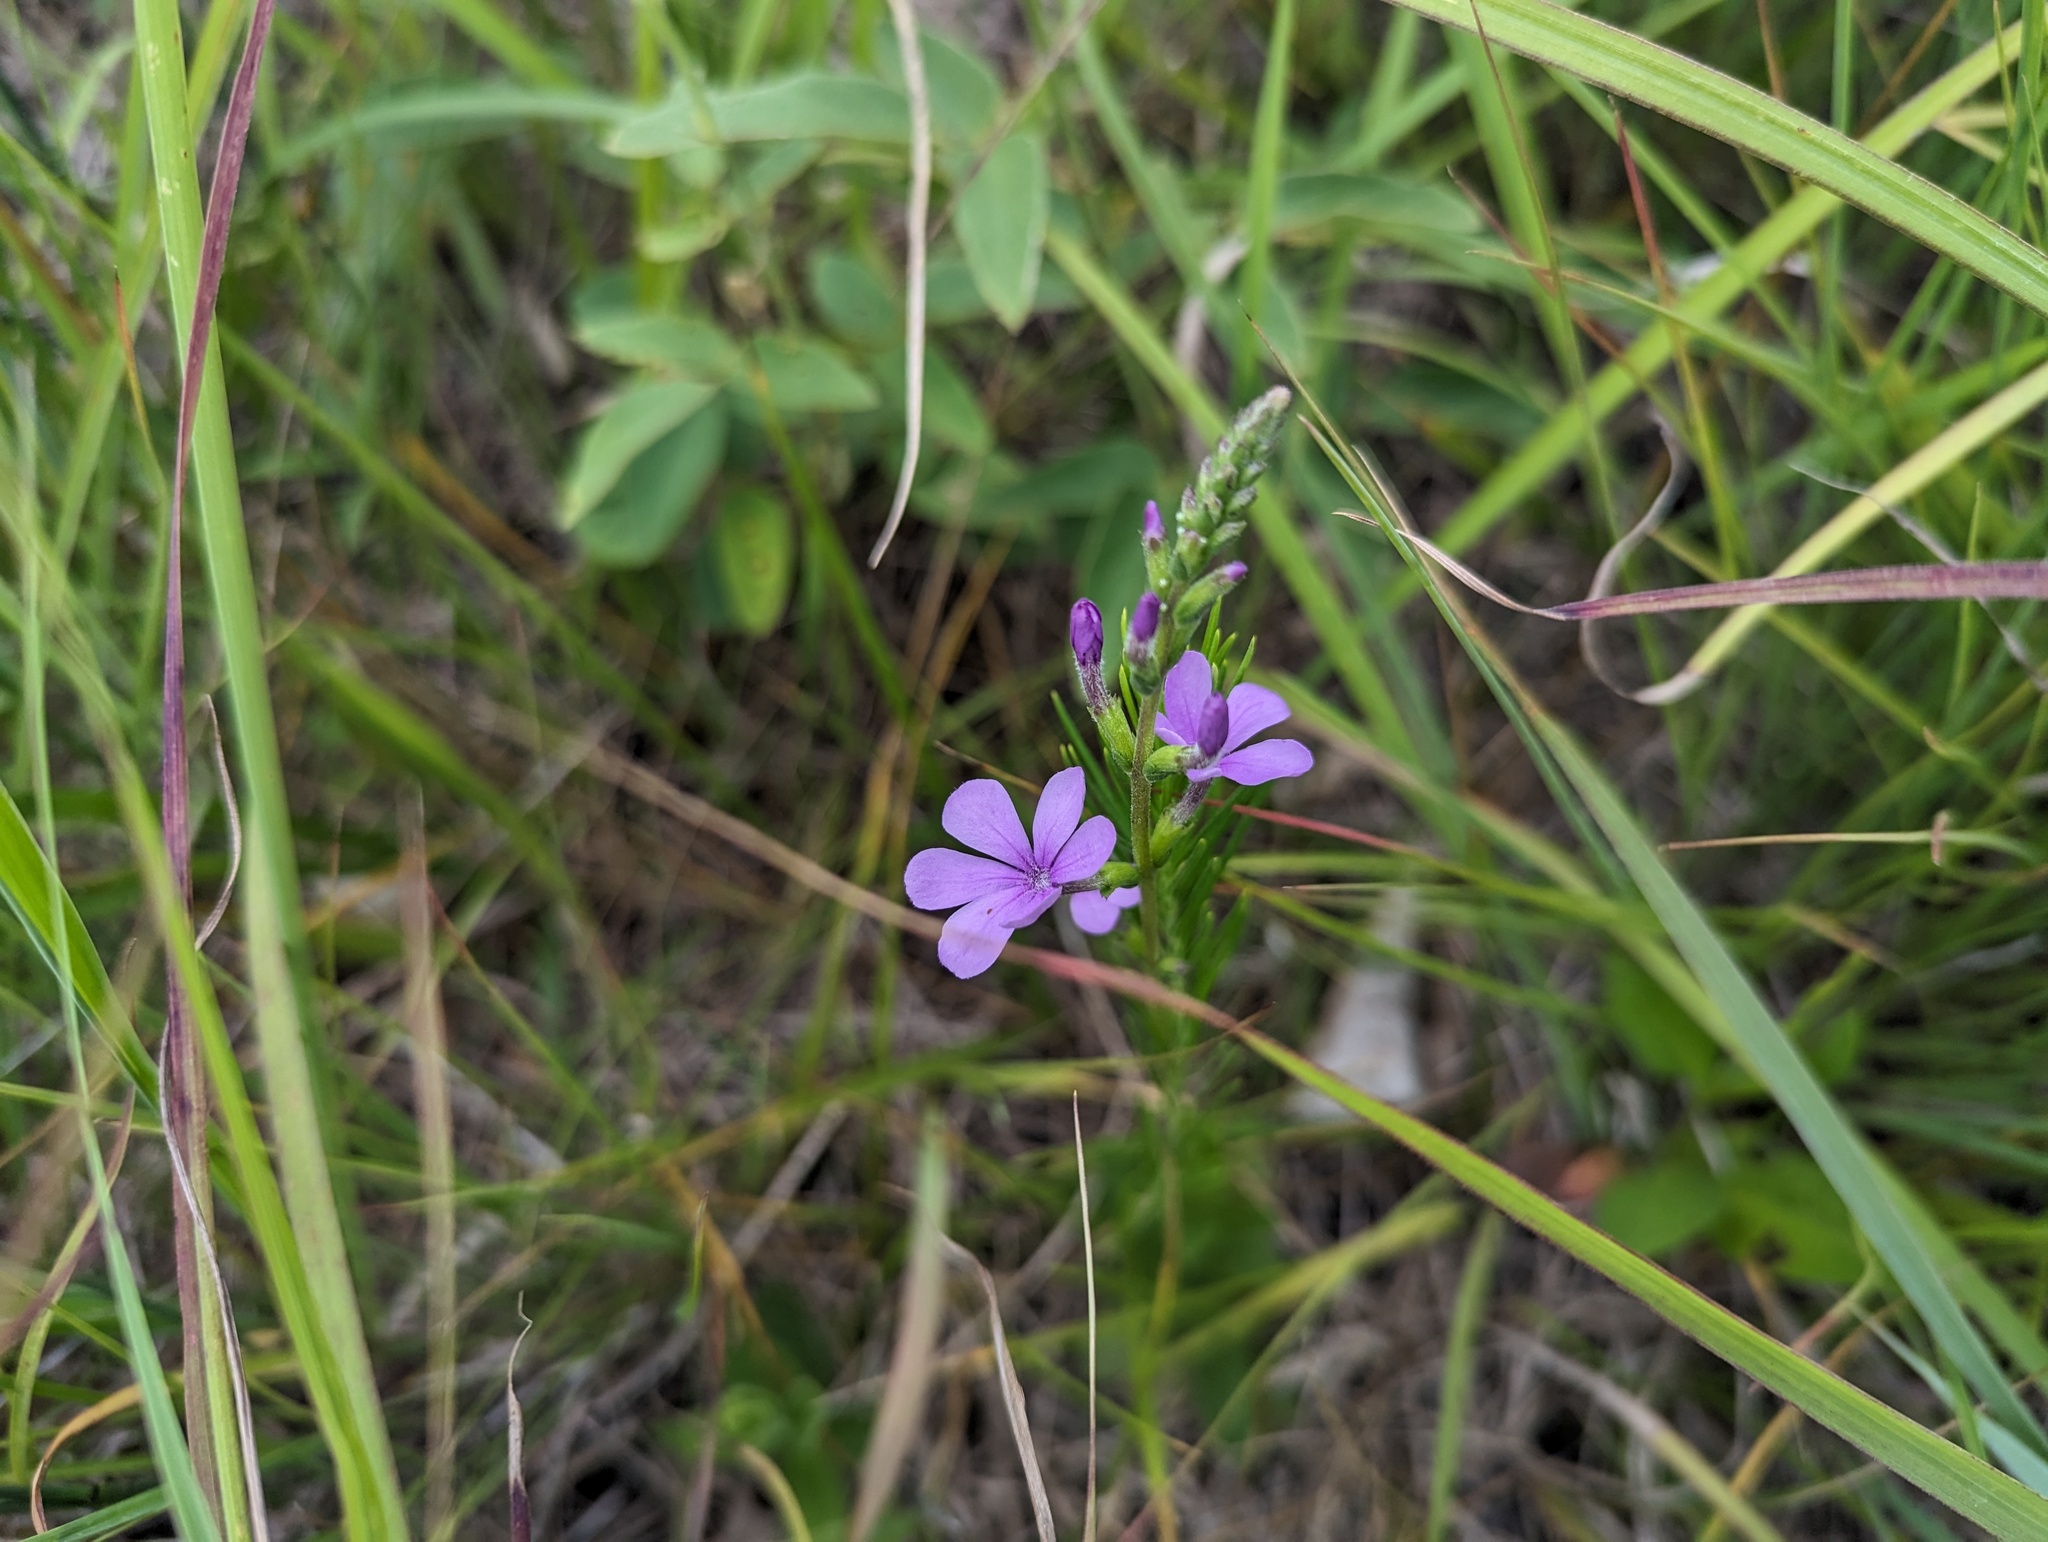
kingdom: Plantae
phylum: Tracheophyta
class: Magnoliopsida
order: Lamiales
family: Orobanchaceae
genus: Buchnera
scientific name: Buchnera americana
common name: American bluehearts
